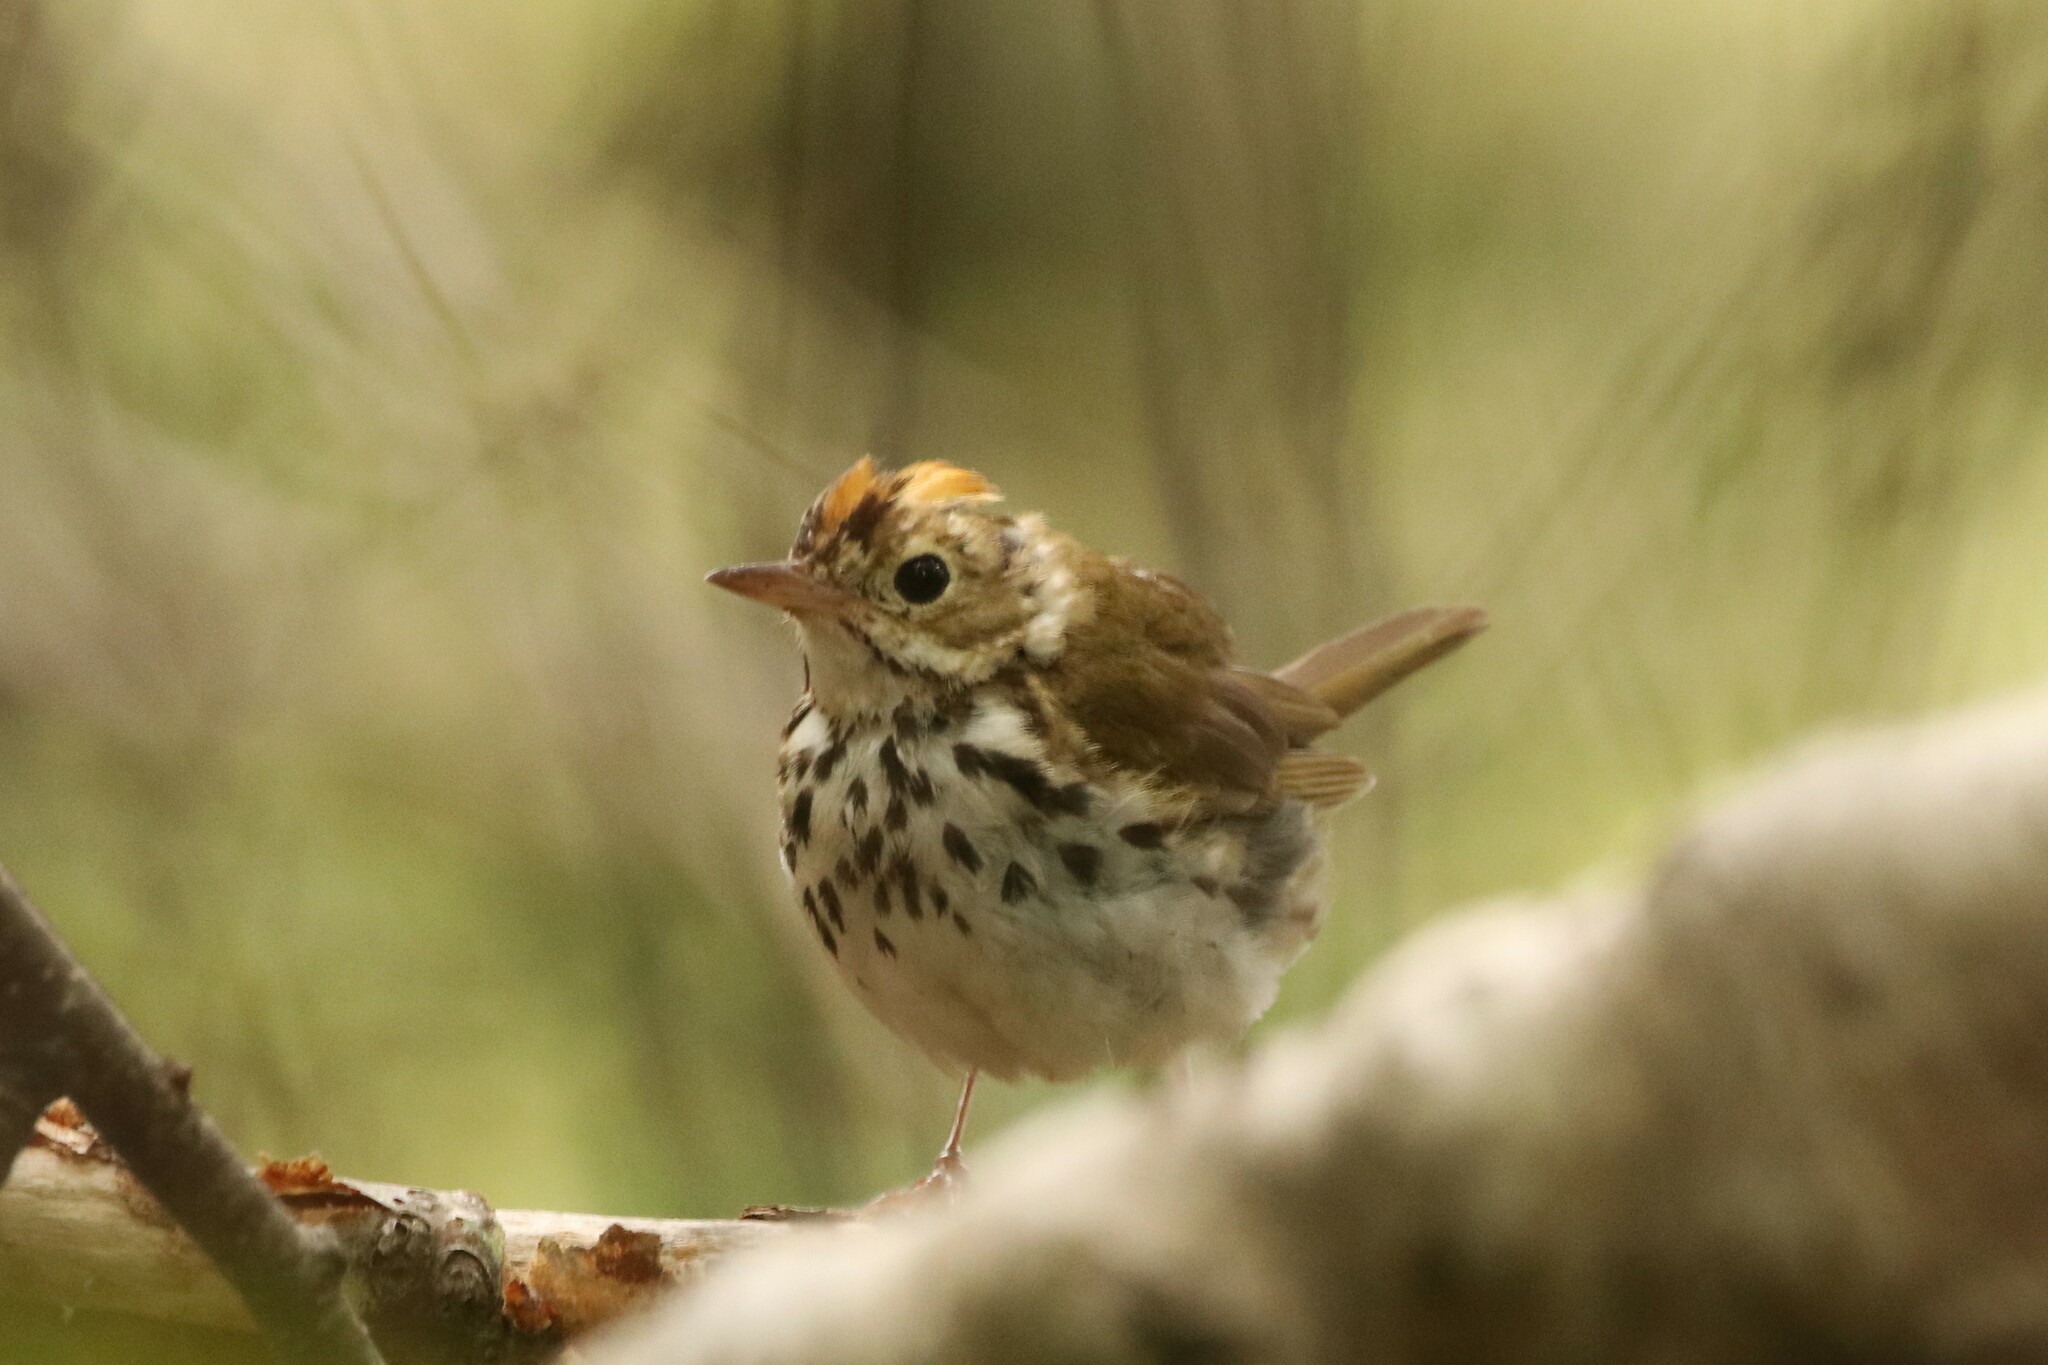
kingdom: Animalia
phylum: Chordata
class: Aves
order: Passeriformes
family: Parulidae
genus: Seiurus
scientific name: Seiurus aurocapilla
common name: Ovenbird
